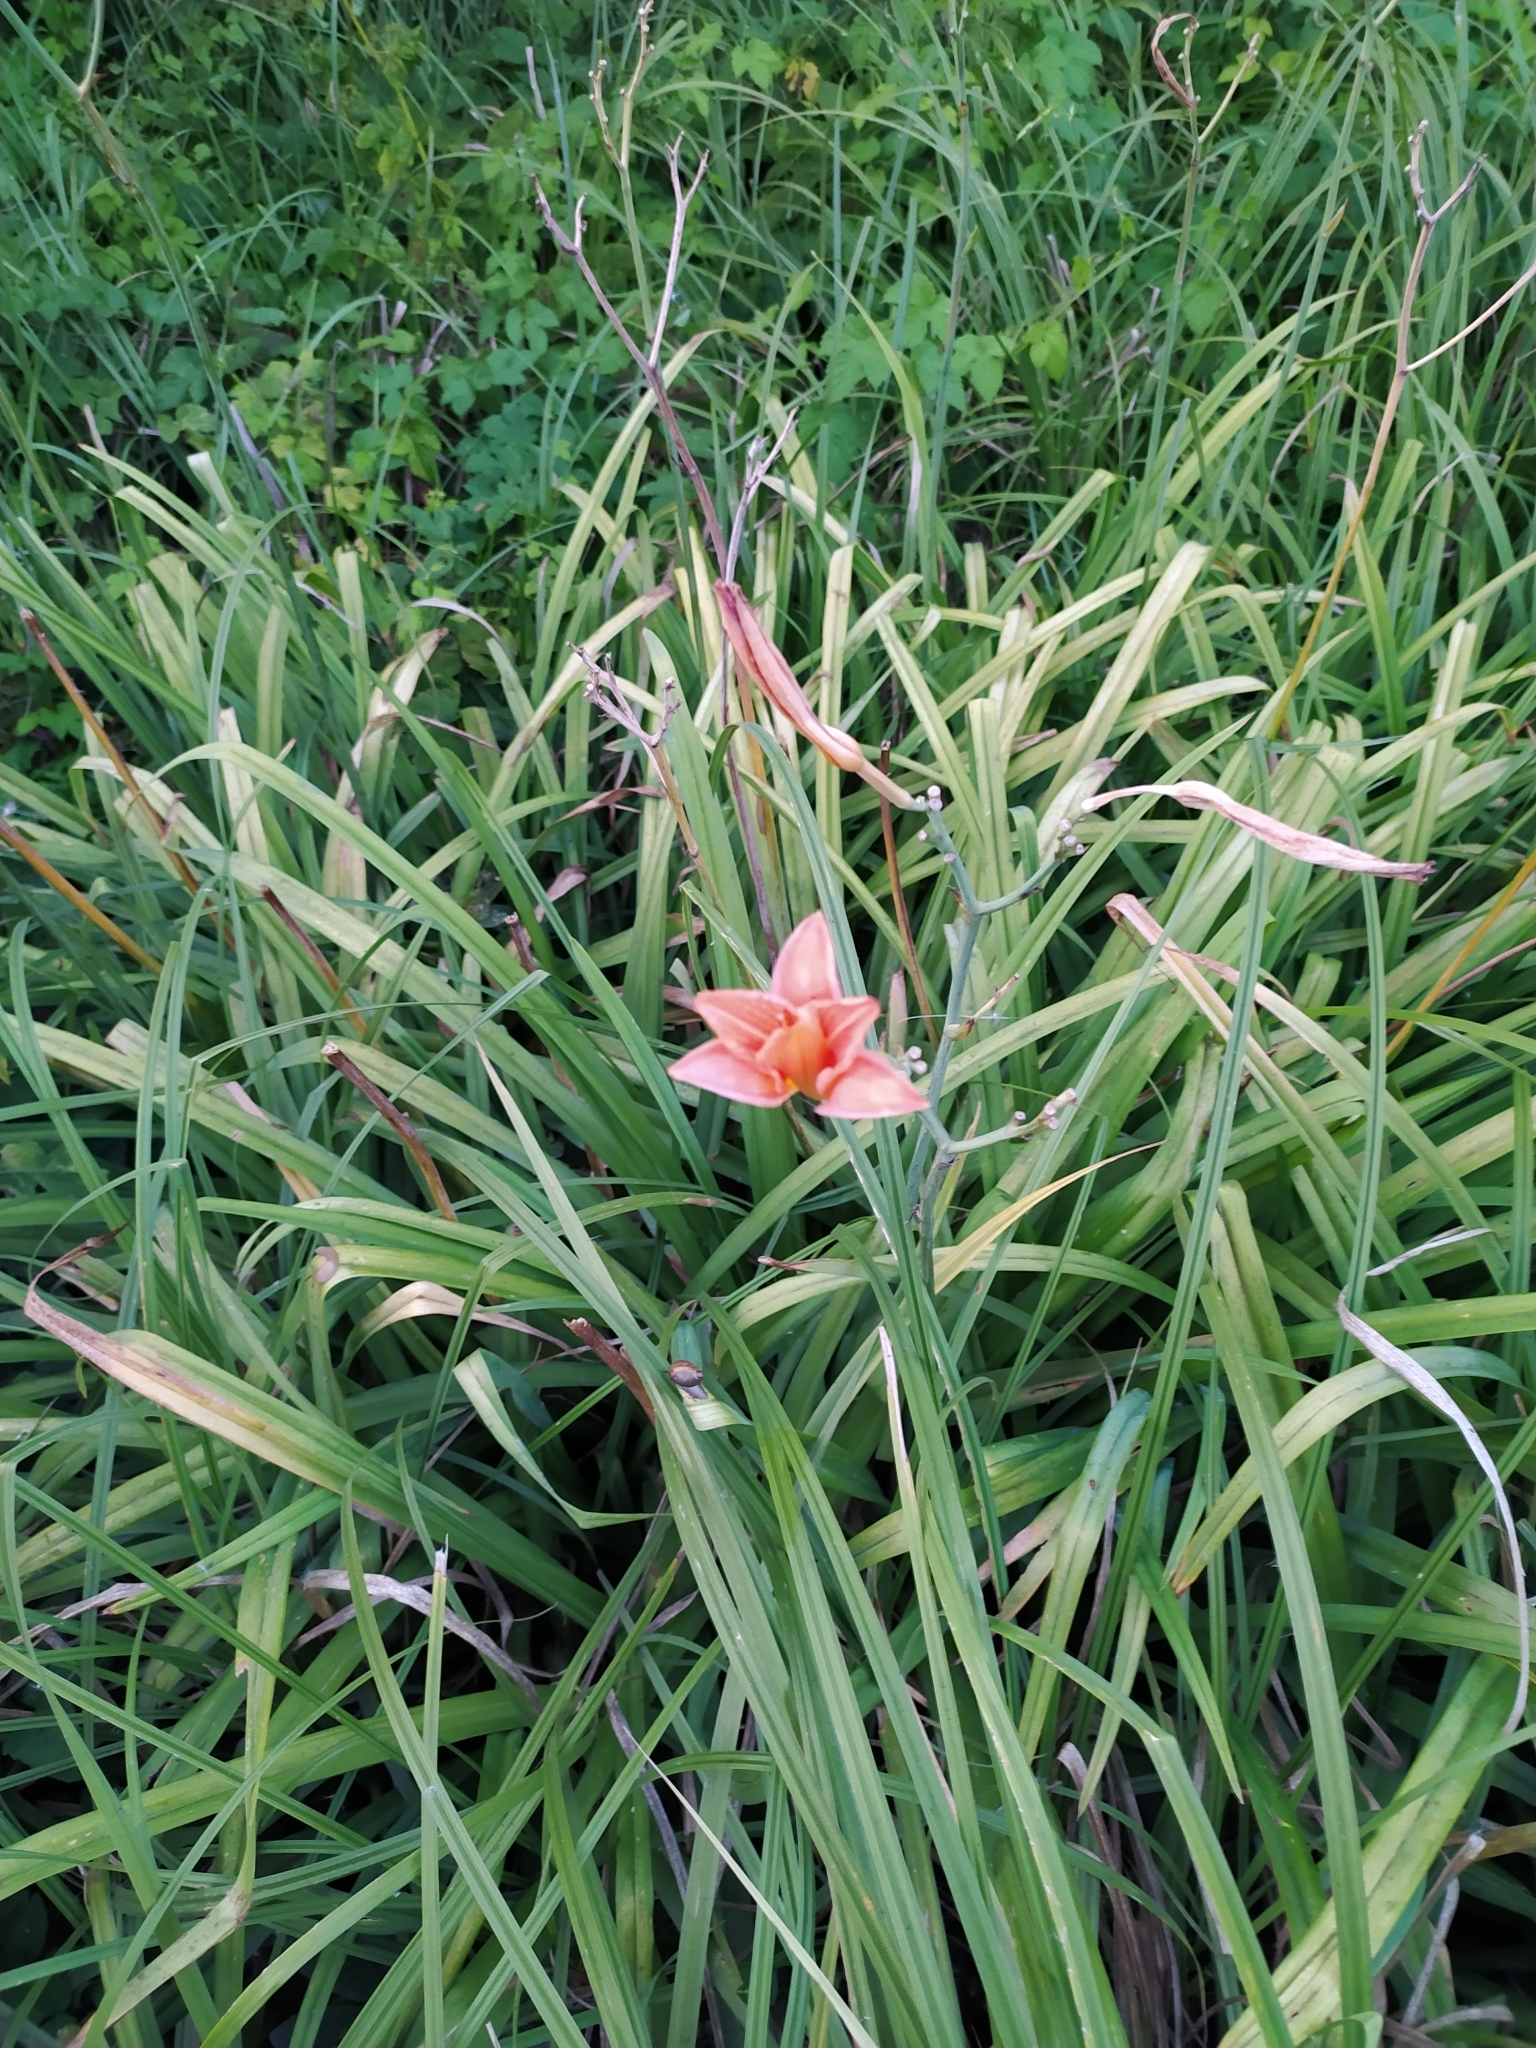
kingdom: Plantae
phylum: Tracheophyta
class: Liliopsida
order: Asparagales
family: Asphodelaceae
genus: Hemerocallis
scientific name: Hemerocallis fulva
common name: Orange day-lily
